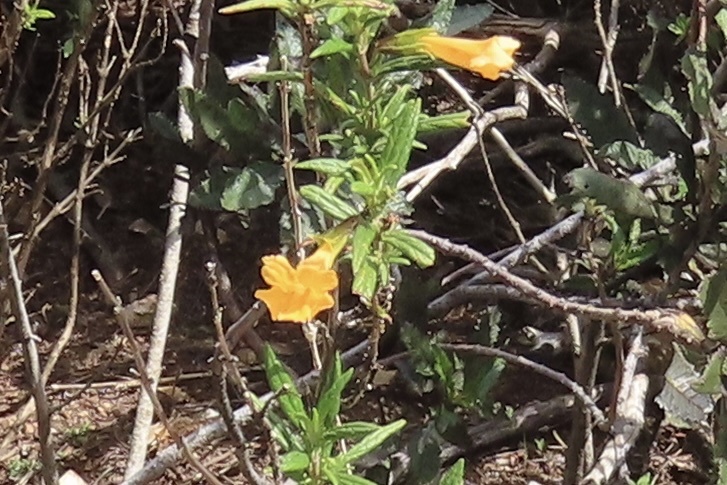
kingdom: Plantae
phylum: Tracheophyta
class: Magnoliopsida
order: Lamiales
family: Phrymaceae
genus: Diplacus
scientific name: Diplacus aurantiacus
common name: Bush monkey-flower
